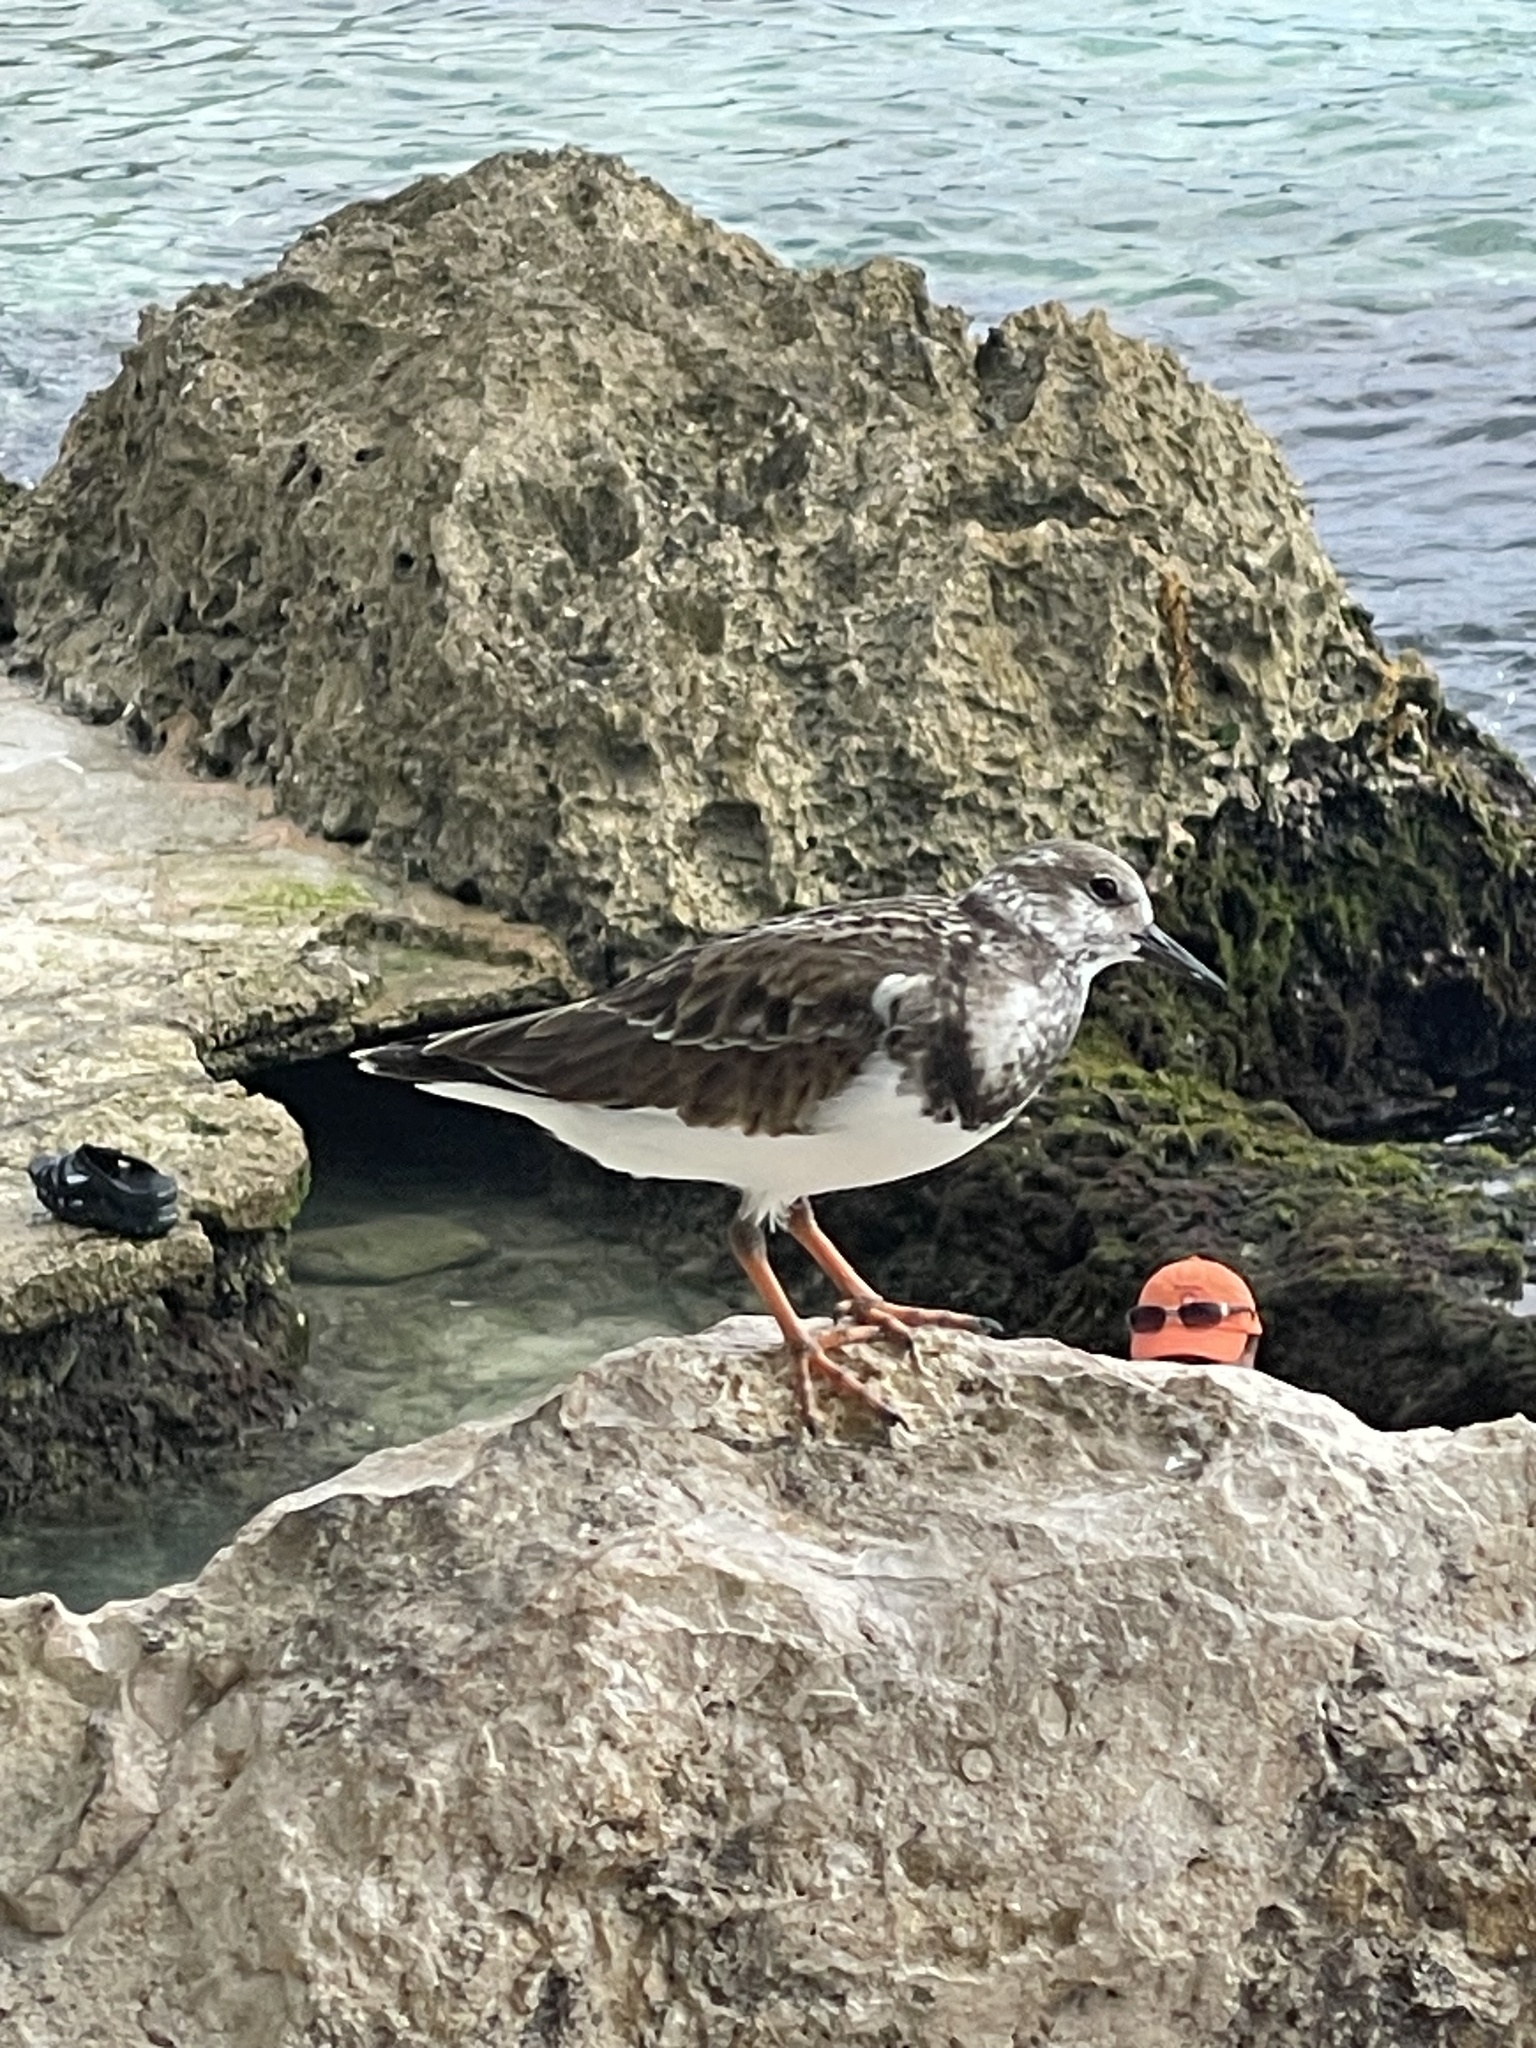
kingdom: Animalia
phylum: Chordata
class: Aves
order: Charadriiformes
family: Scolopacidae
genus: Arenaria
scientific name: Arenaria interpres
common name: Ruddy turnstone
